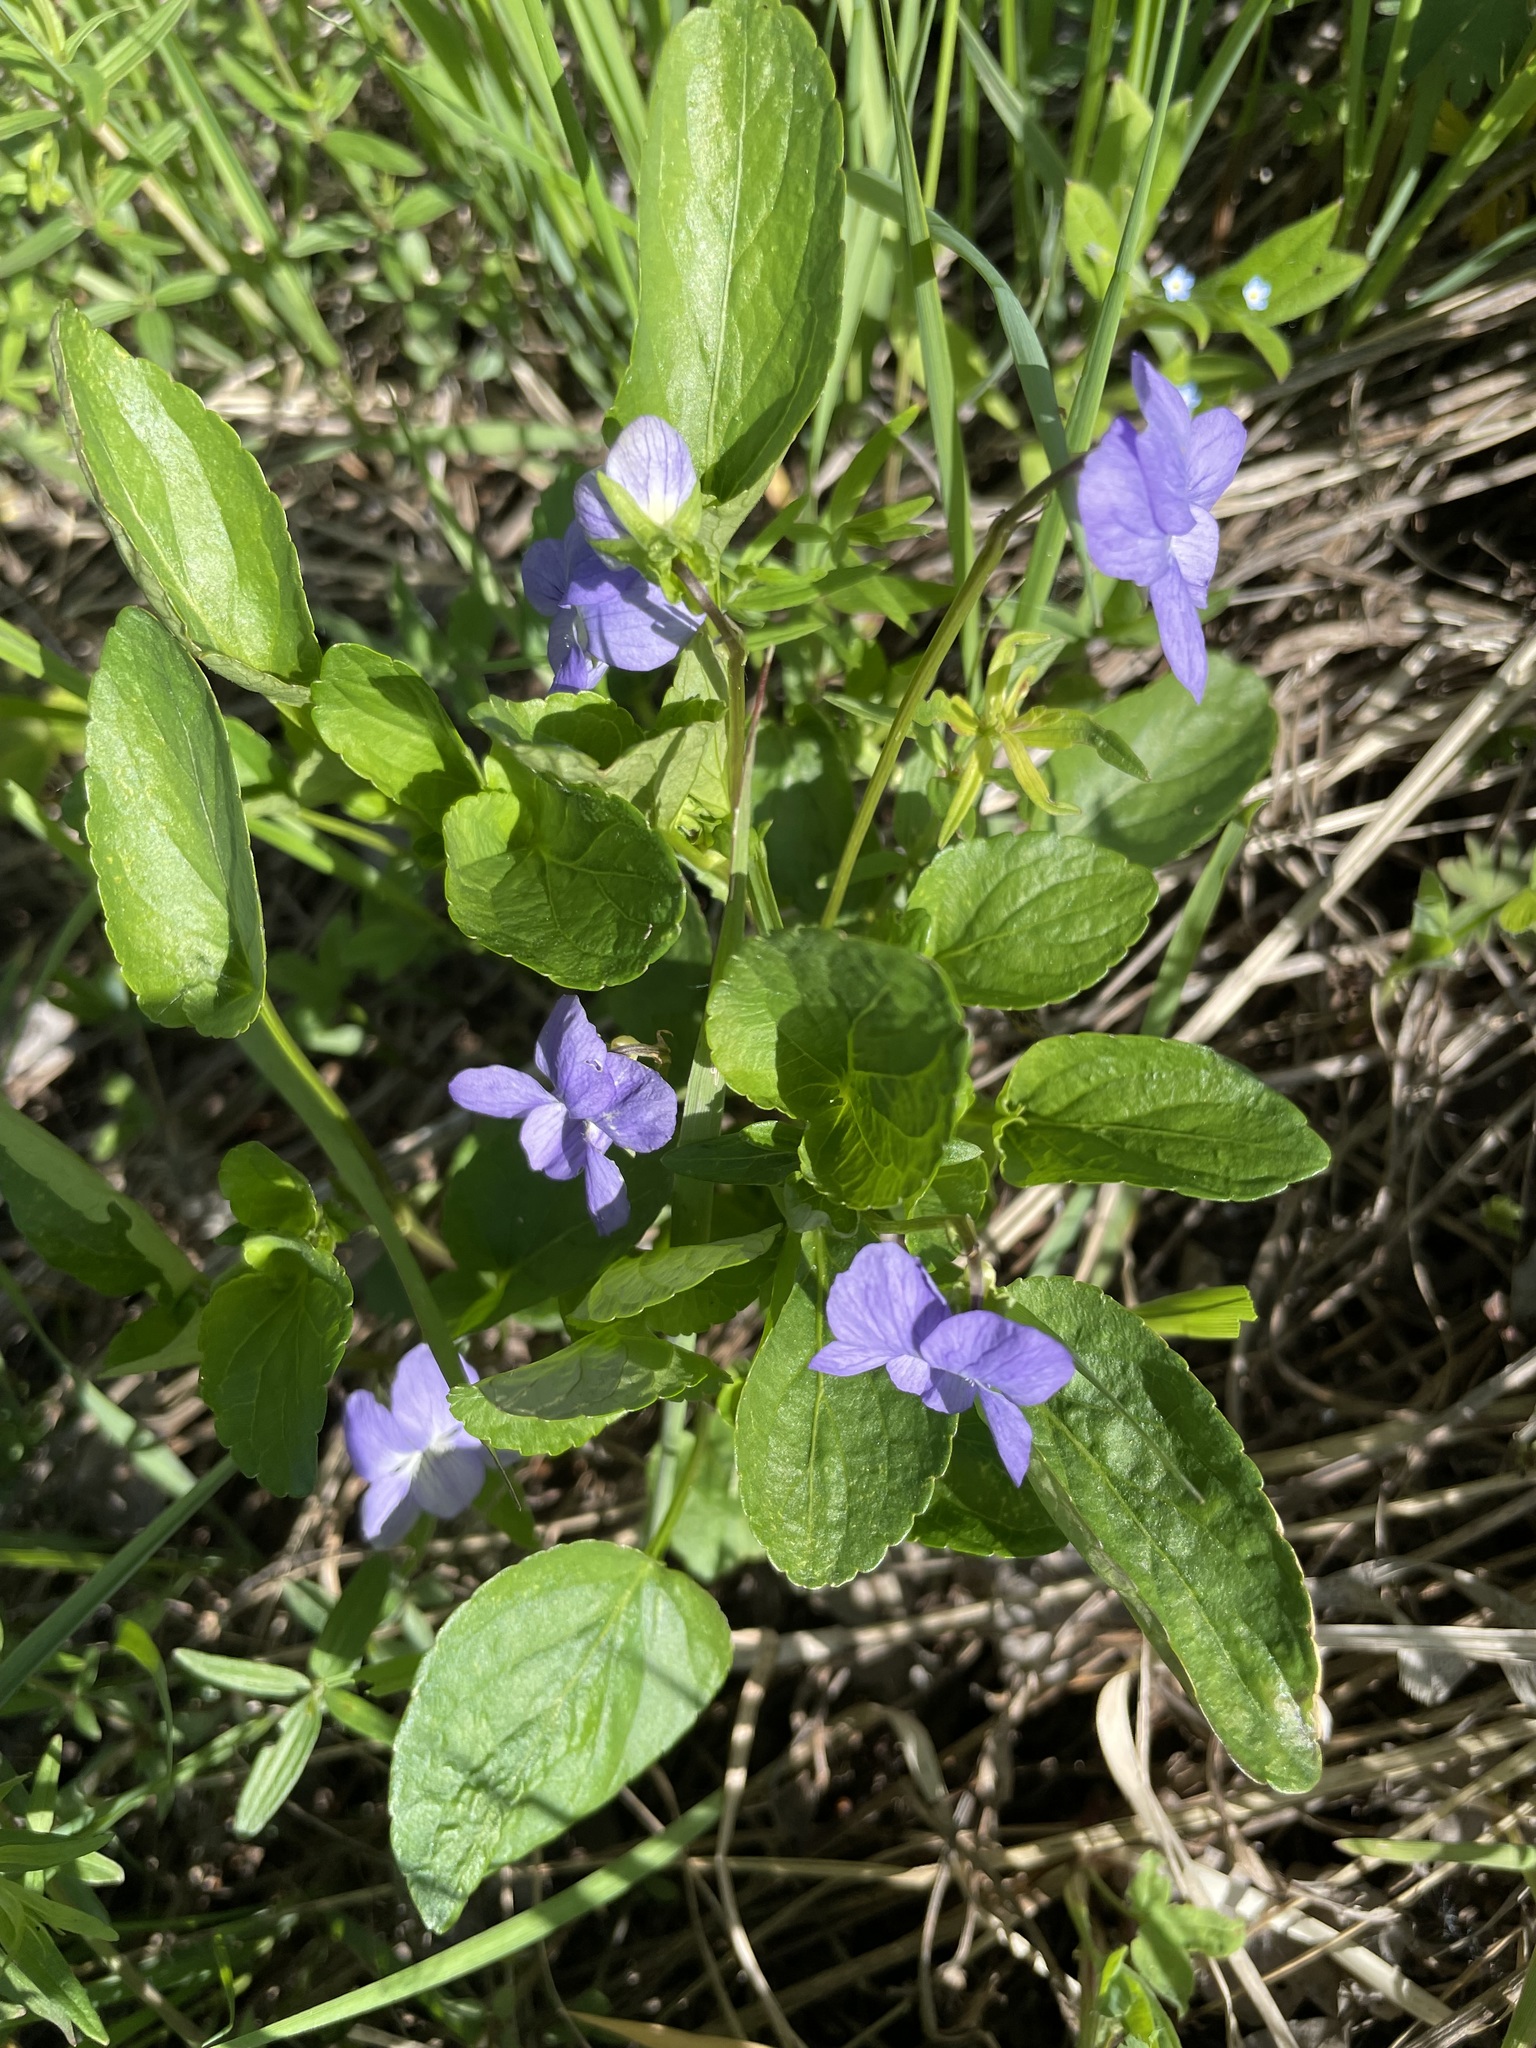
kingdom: Plantae
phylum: Tracheophyta
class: Magnoliopsida
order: Malpighiales
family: Violaceae
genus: Viola
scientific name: Viola canina
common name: Heath dog-violet
